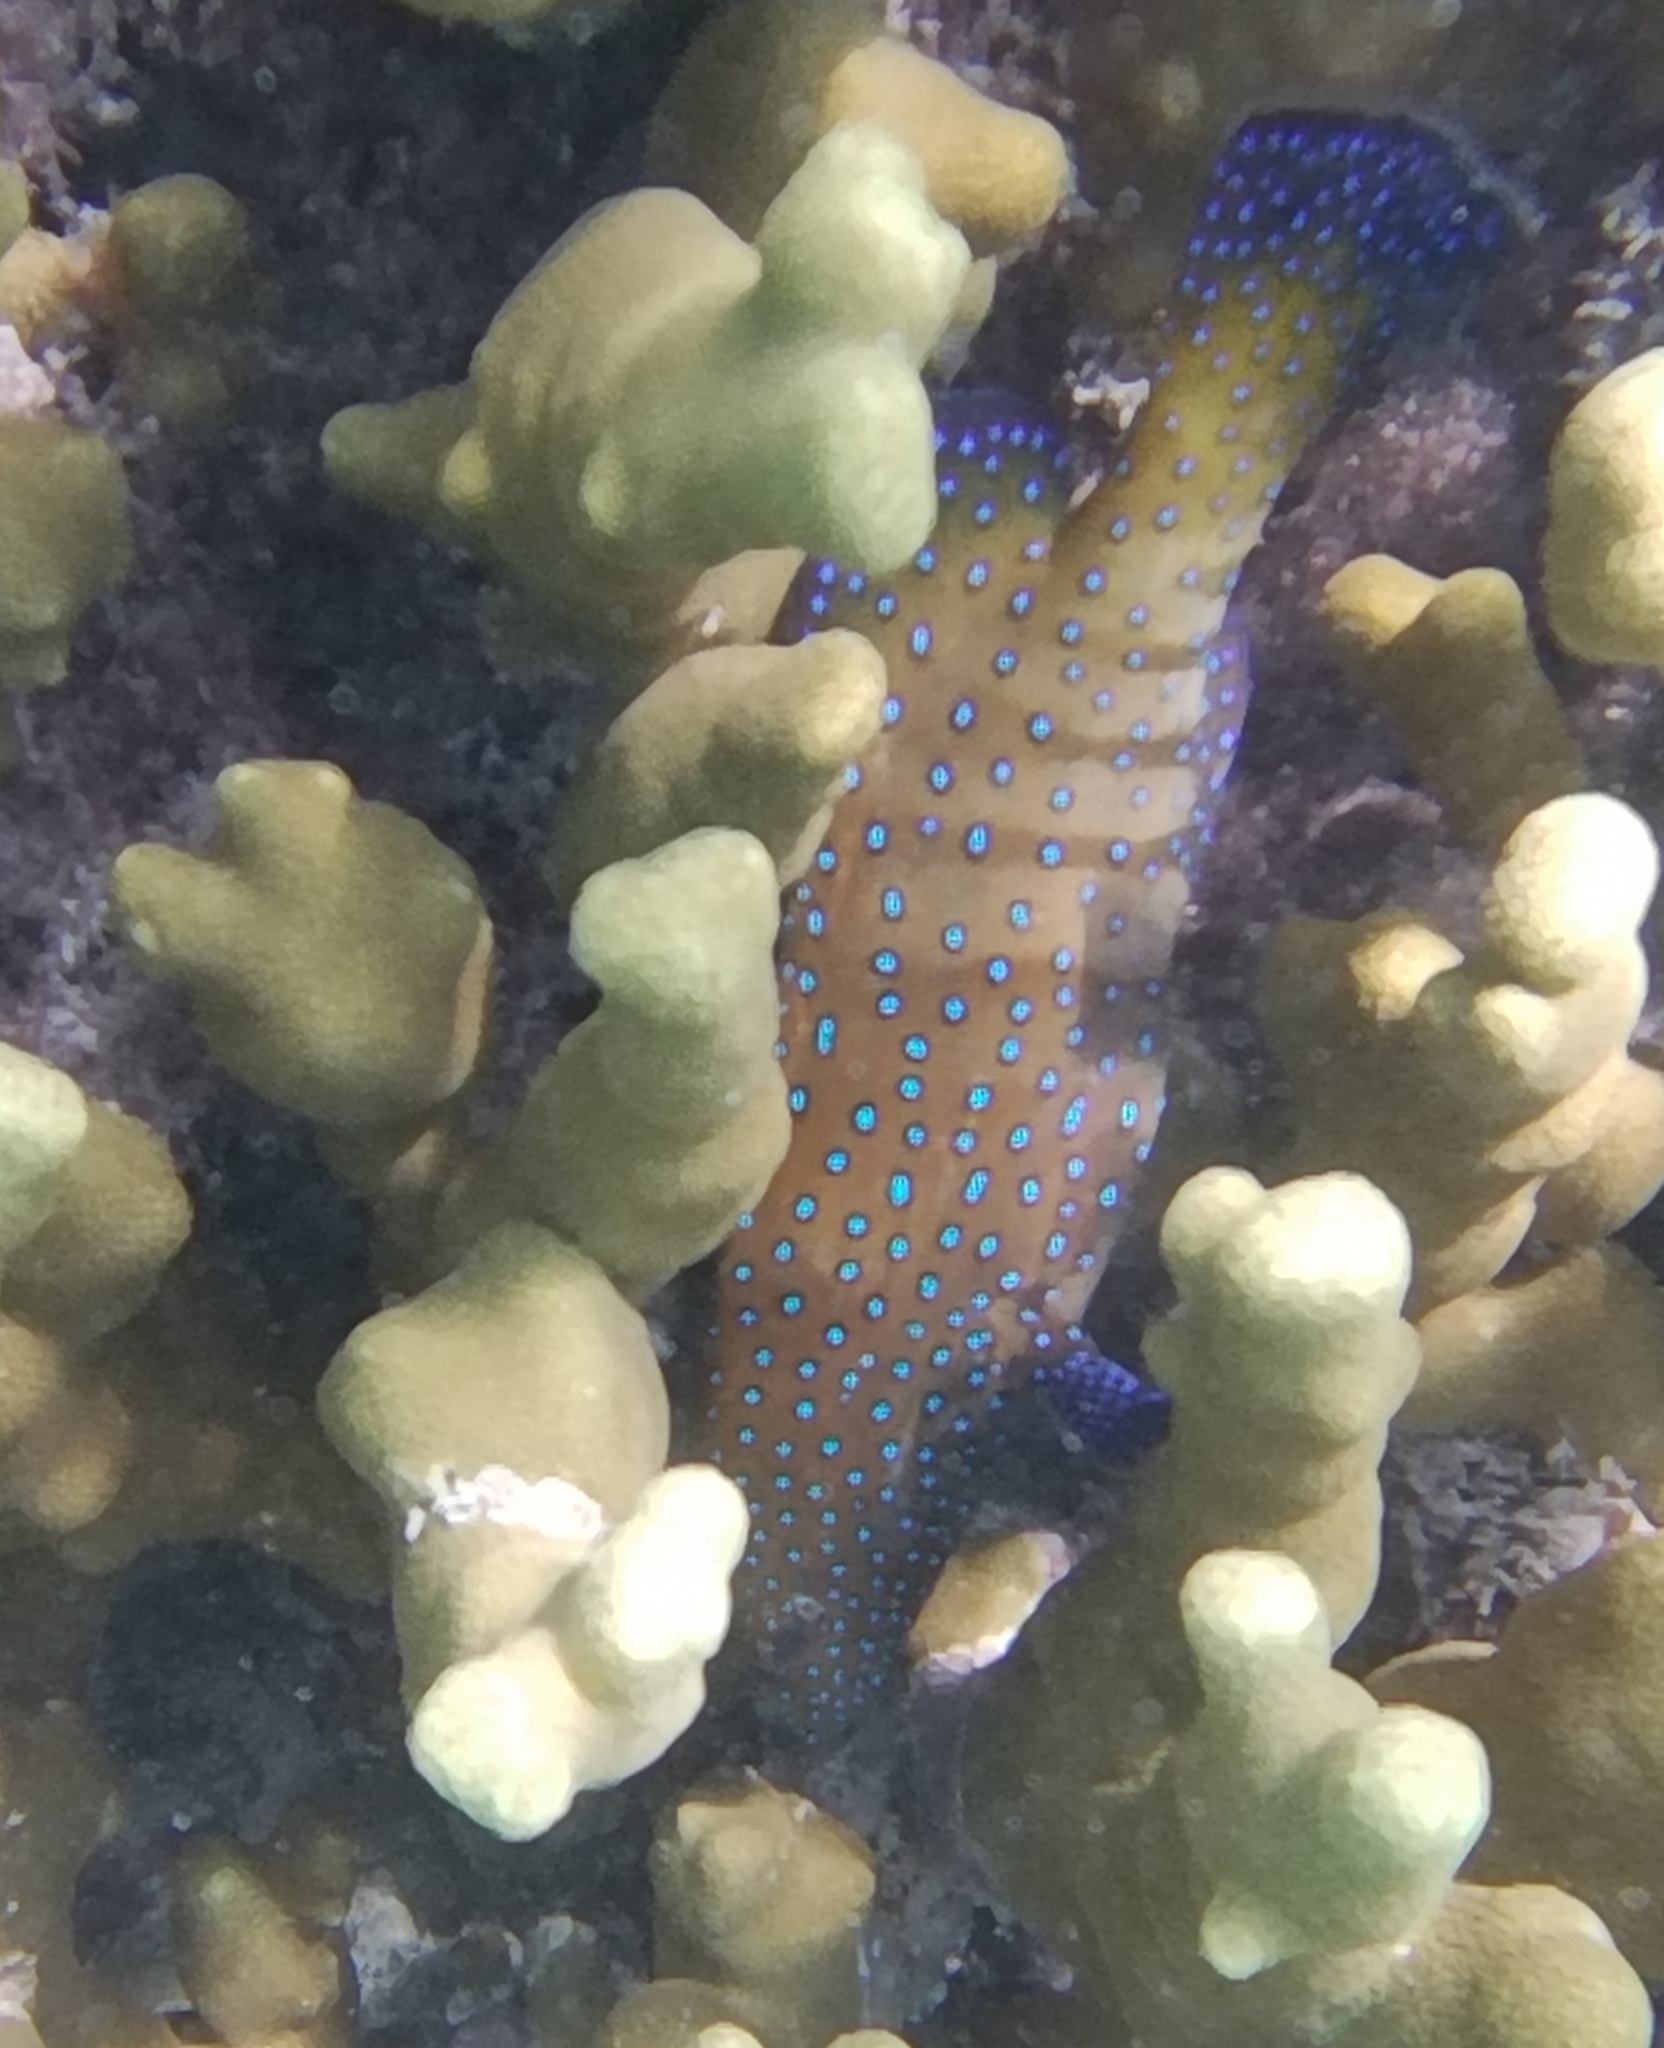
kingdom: Animalia
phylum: Chordata
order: Perciformes
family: Serranidae
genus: Cephalopholis
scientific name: Cephalopholis argus
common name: Peacock grouper
